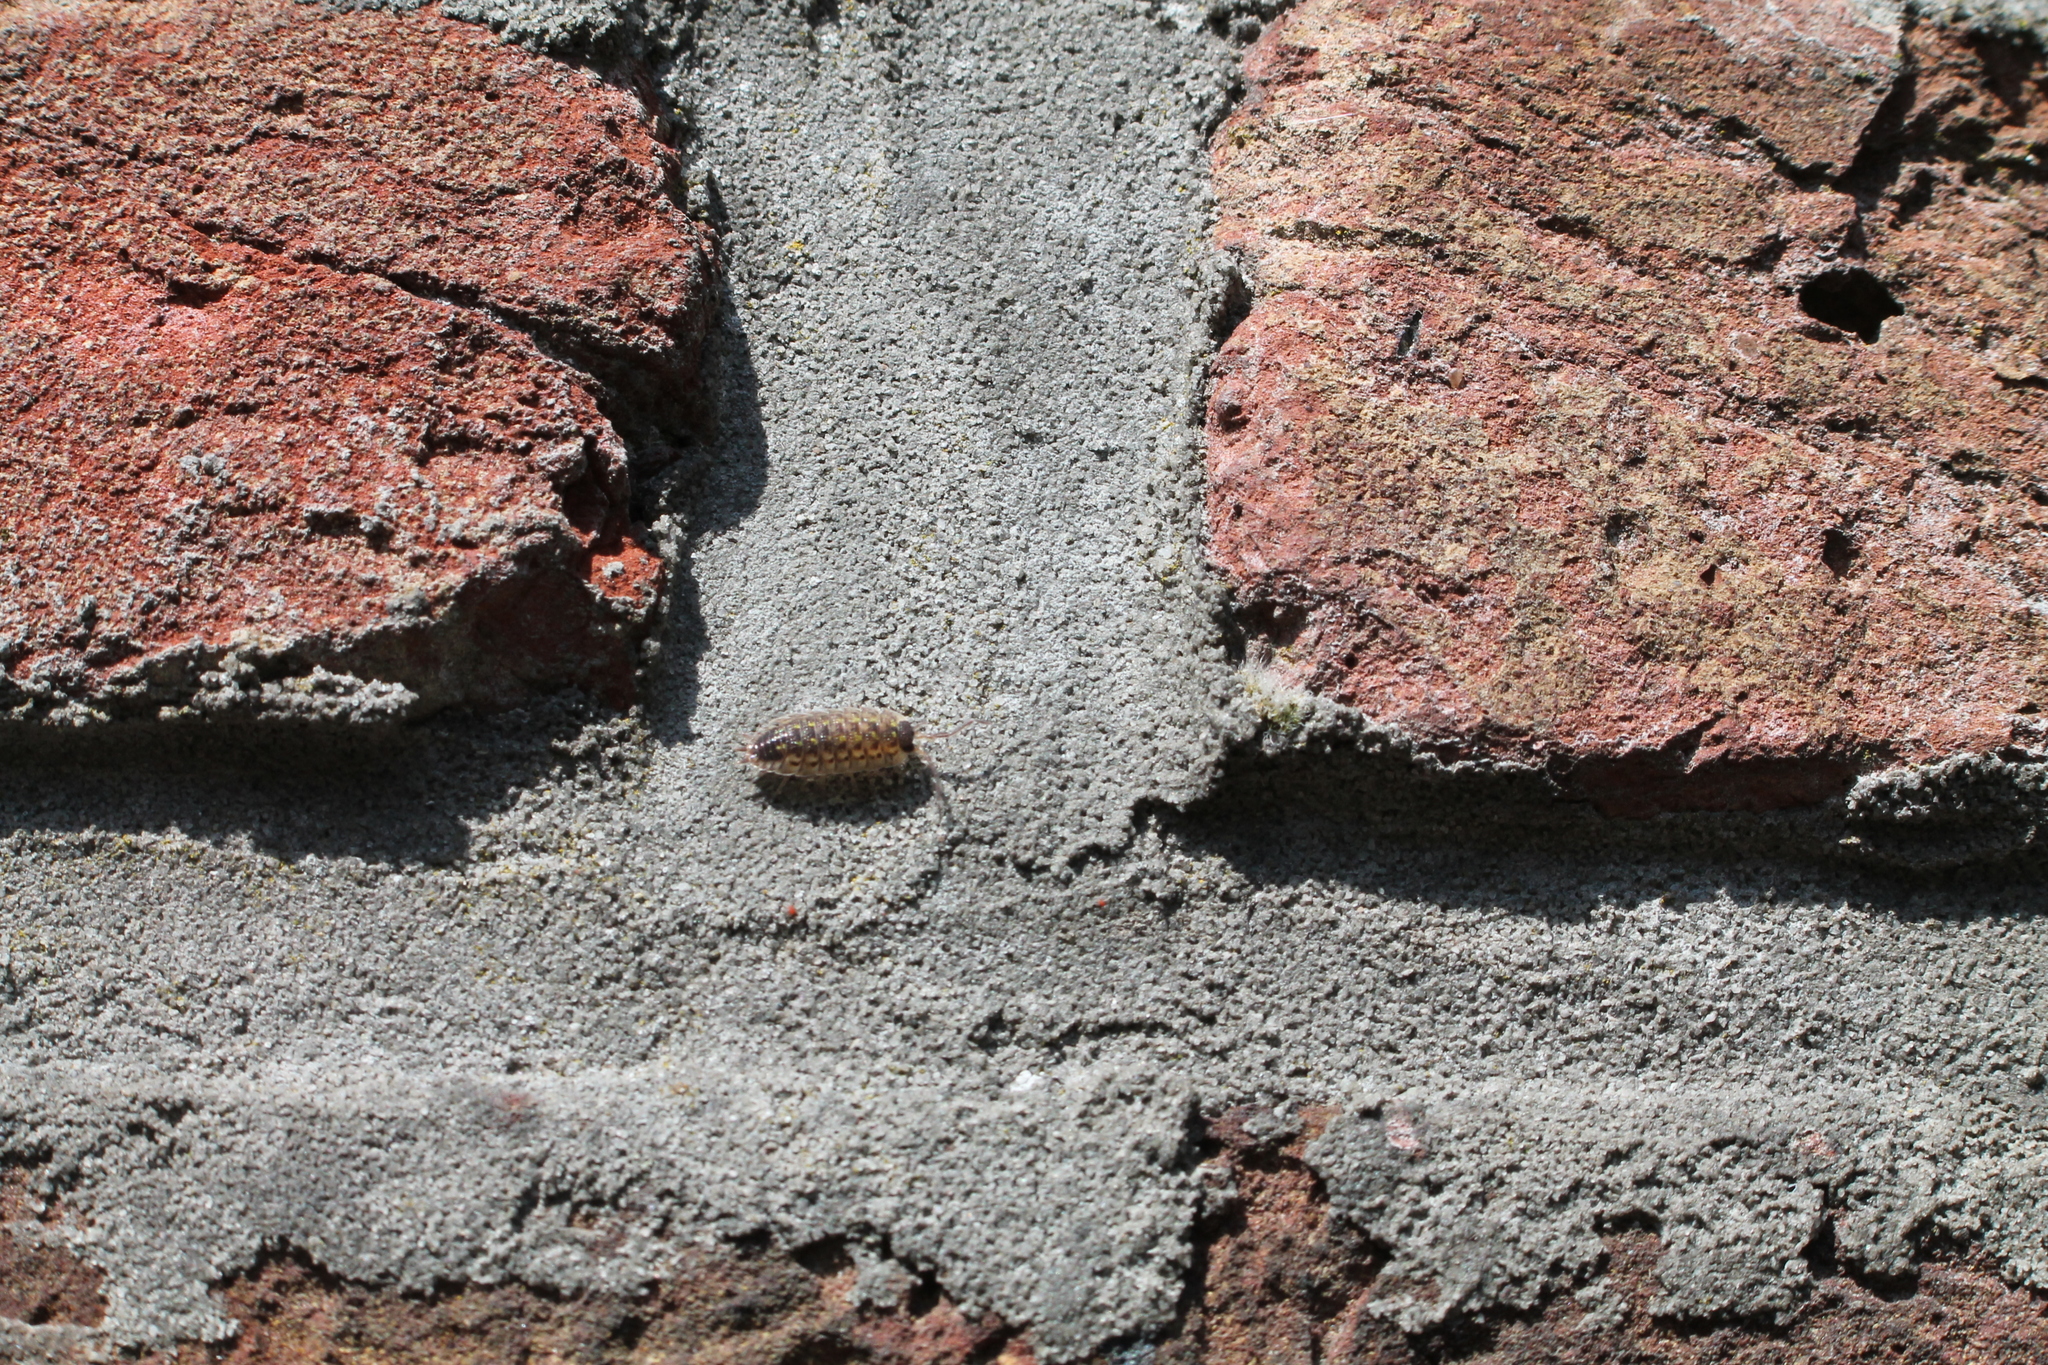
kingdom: Animalia
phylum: Arthropoda
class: Malacostraca
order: Isopoda
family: Porcellionidae
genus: Porcellio
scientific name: Porcellio spinicornis
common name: Painted woodlouse
